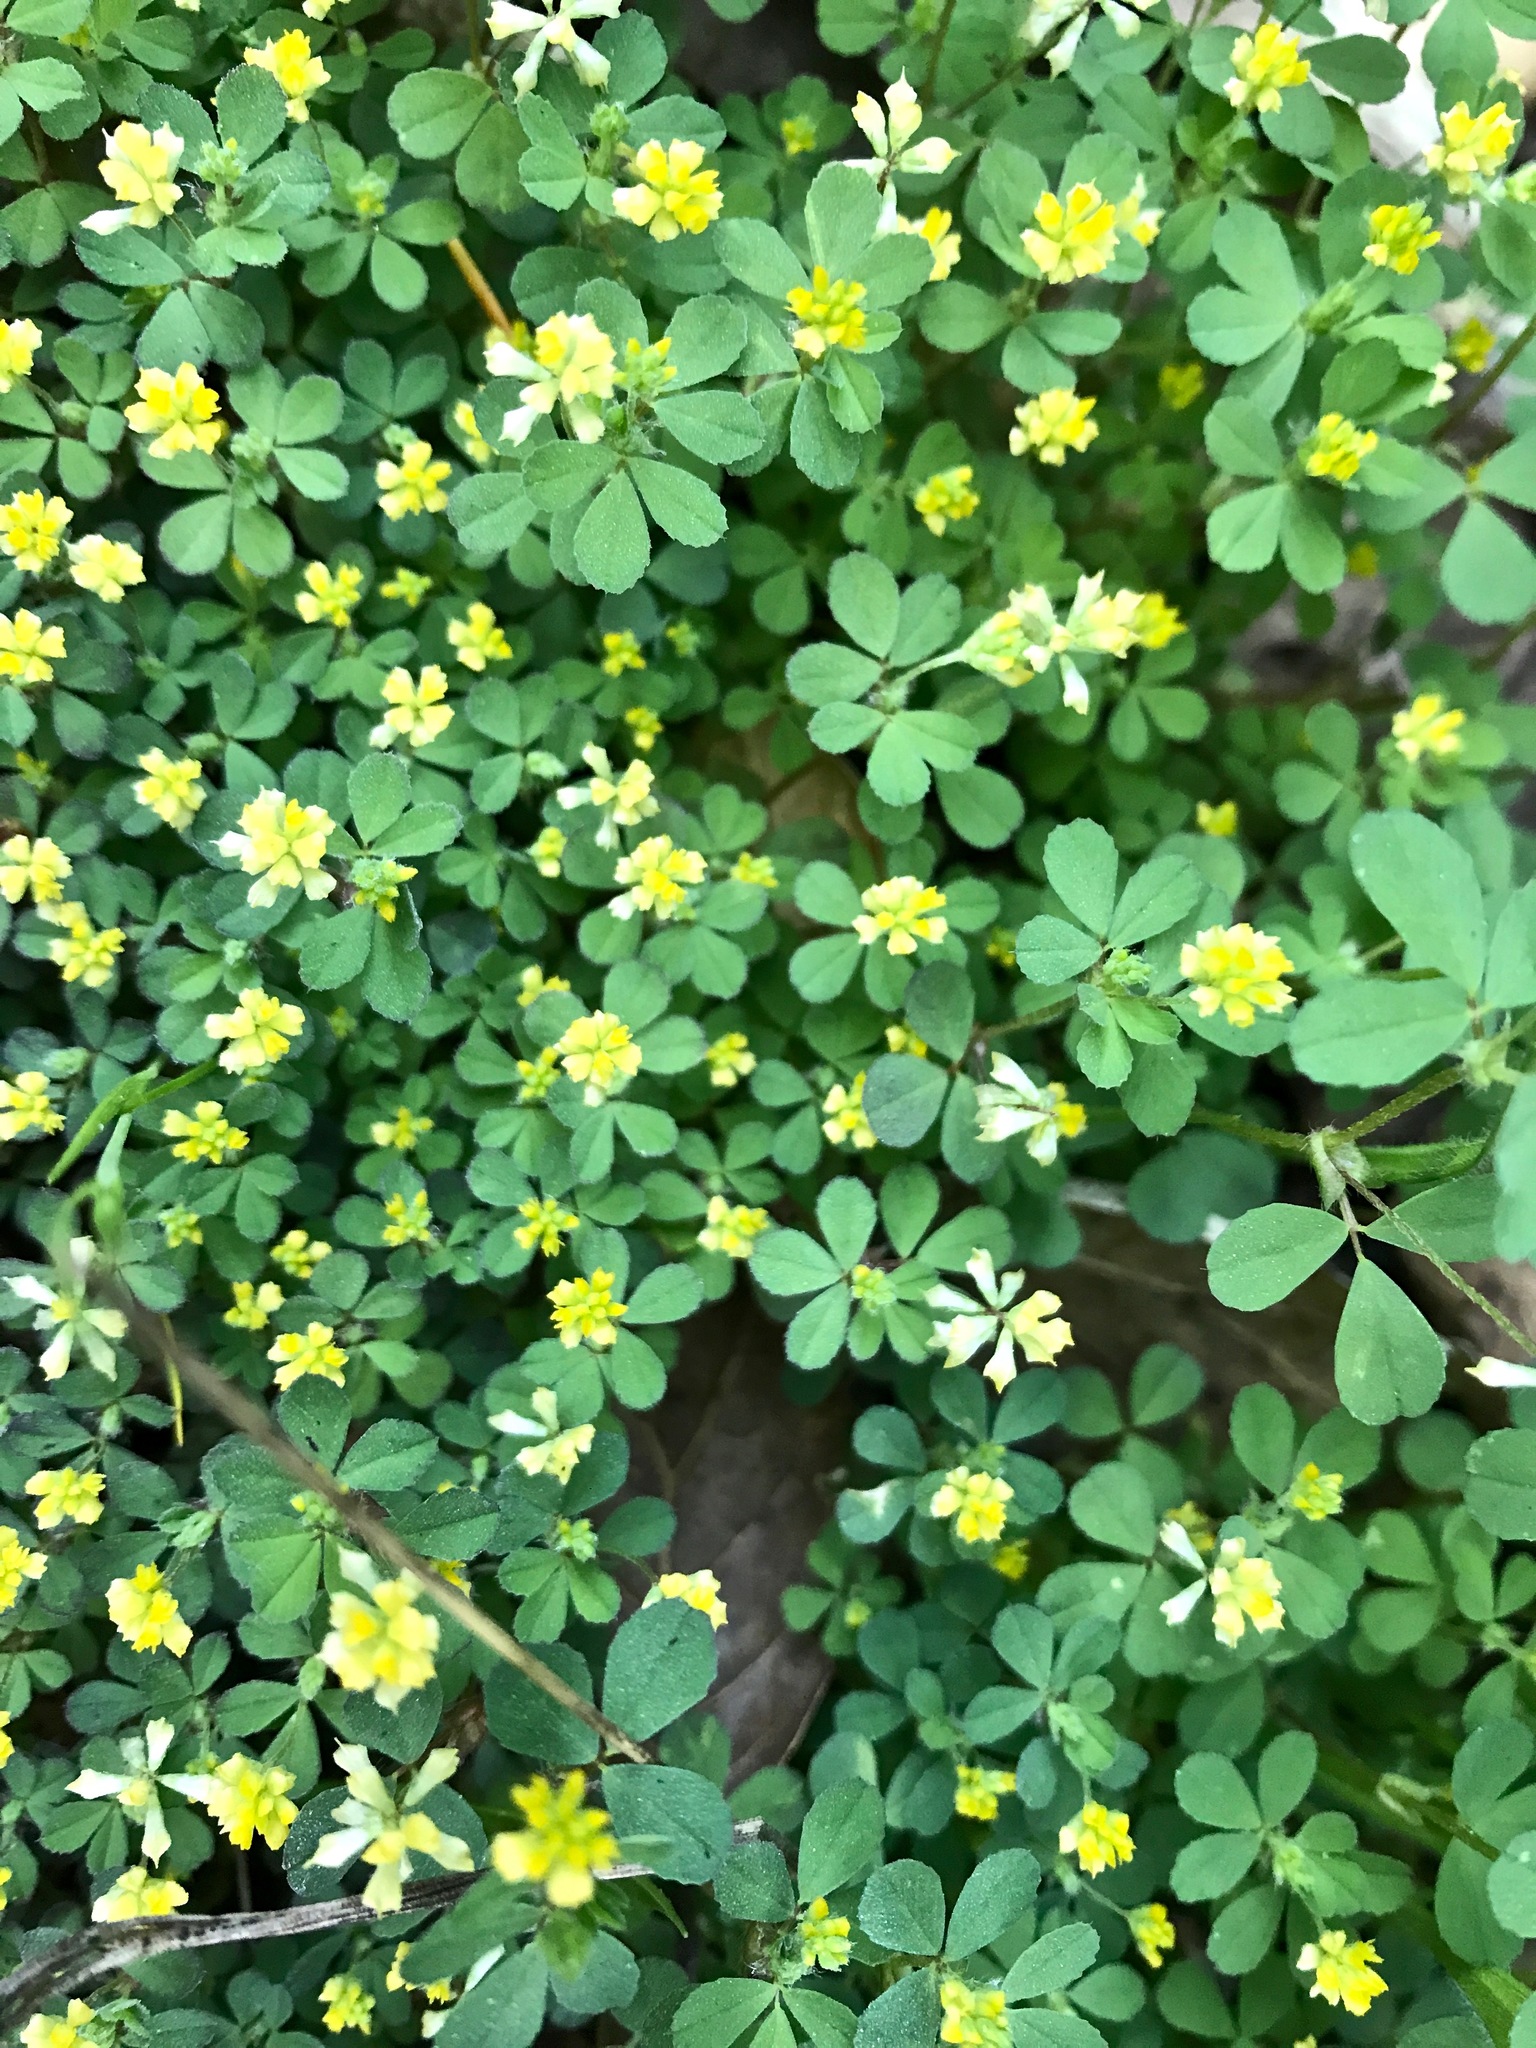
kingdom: Plantae
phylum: Tracheophyta
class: Magnoliopsida
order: Fabales
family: Fabaceae
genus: Trifolium
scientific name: Trifolium dubium
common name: Suckling clover
